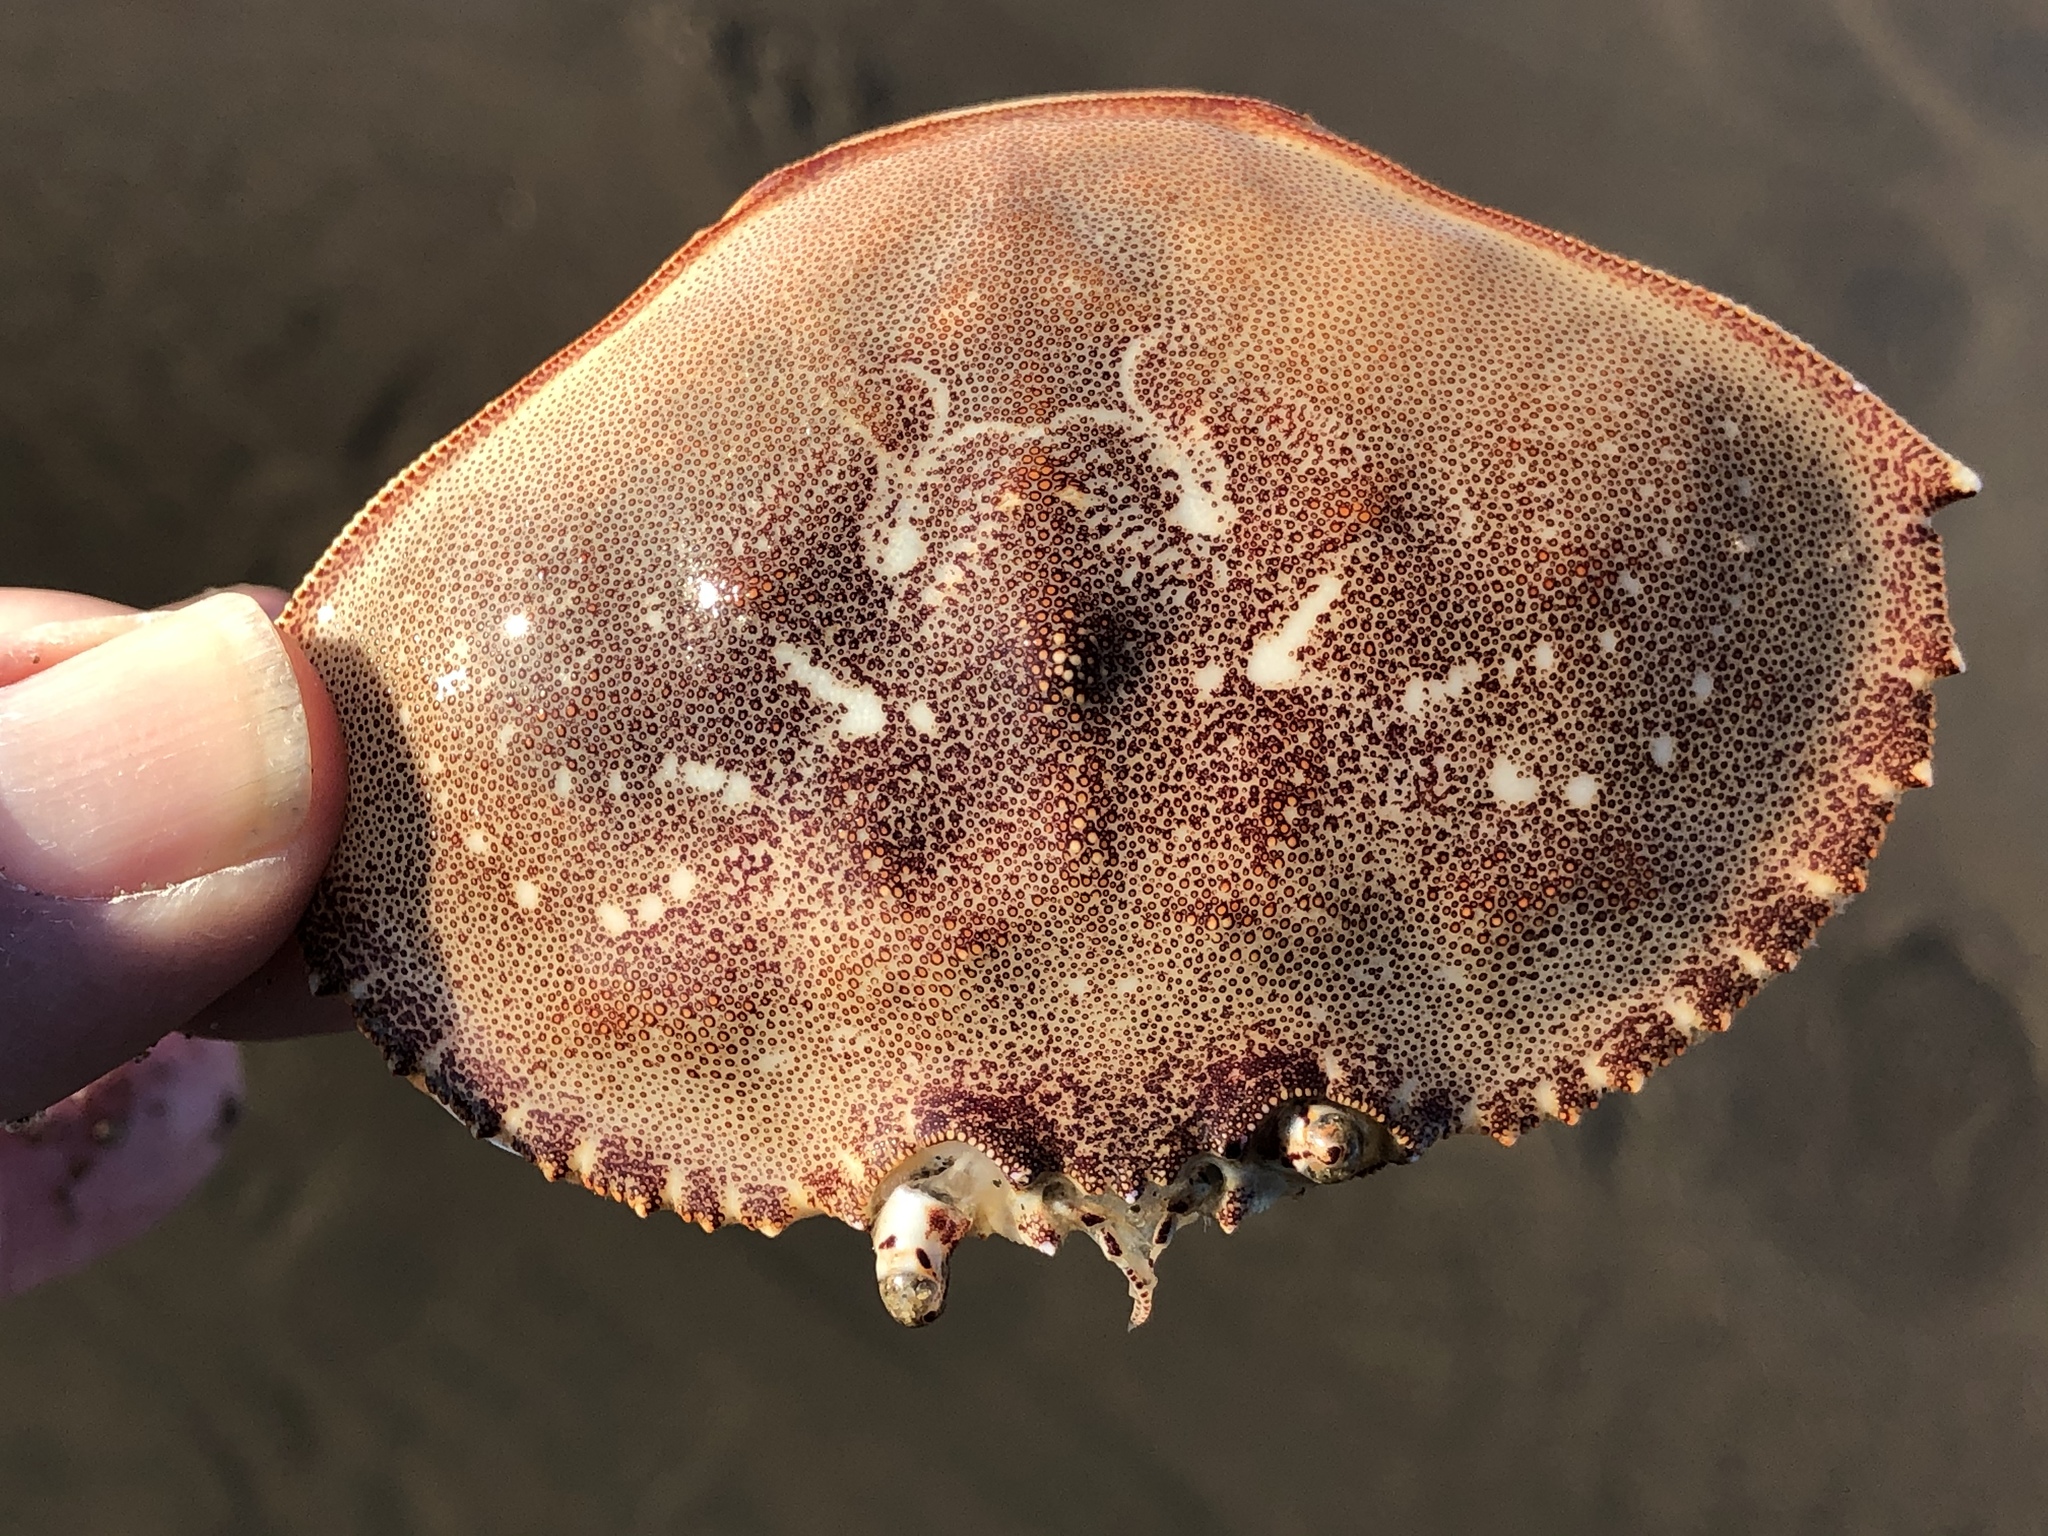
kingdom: Animalia
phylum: Arthropoda
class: Malacostraca
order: Decapoda
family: Cancridae
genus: Metacarcinus
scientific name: Metacarcinus magister
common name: Californian crab
